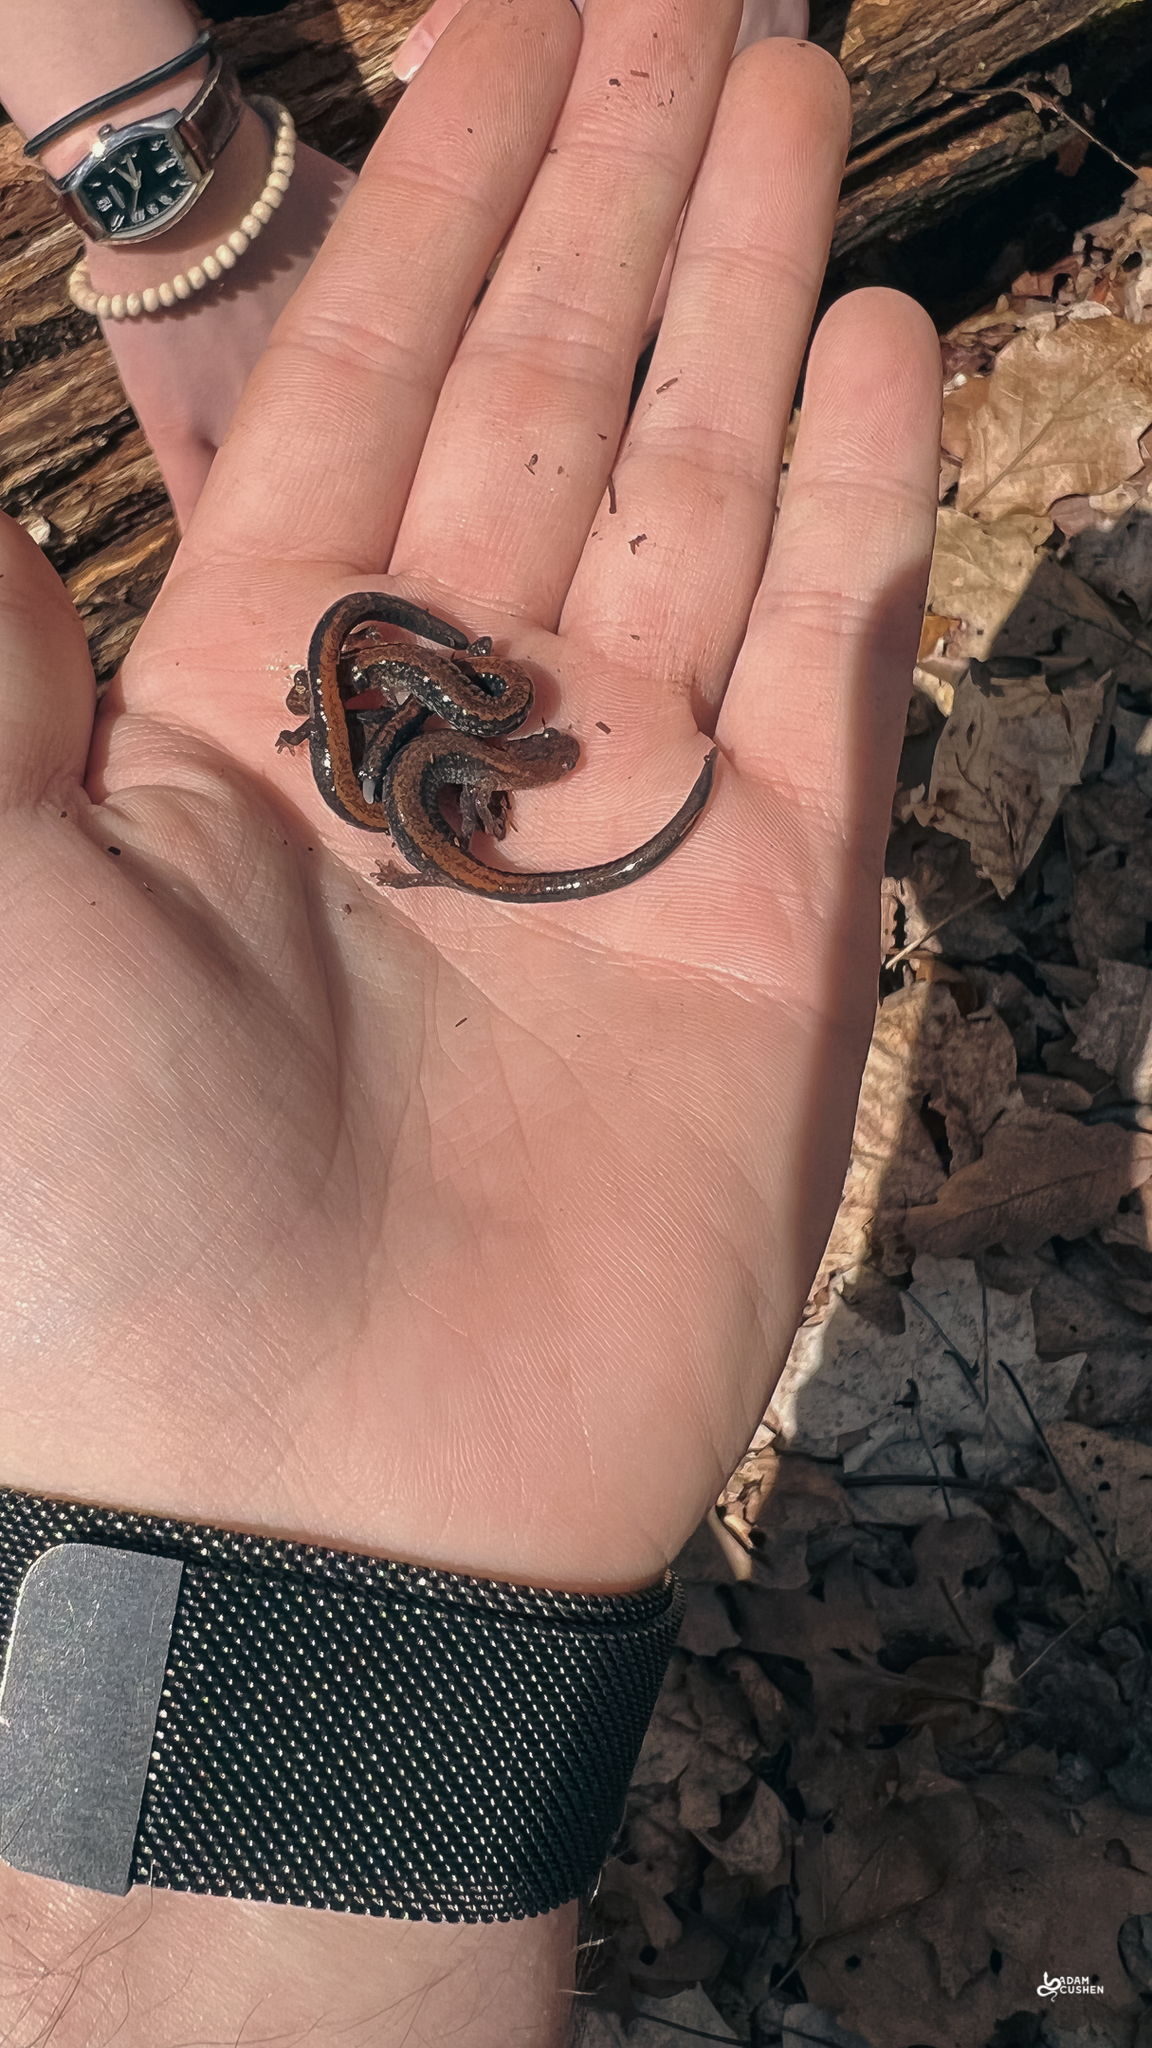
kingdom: Animalia
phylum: Chordata
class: Amphibia
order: Caudata
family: Plethodontidae
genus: Plethodon
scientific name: Plethodon cinereus
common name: Redback salamander
